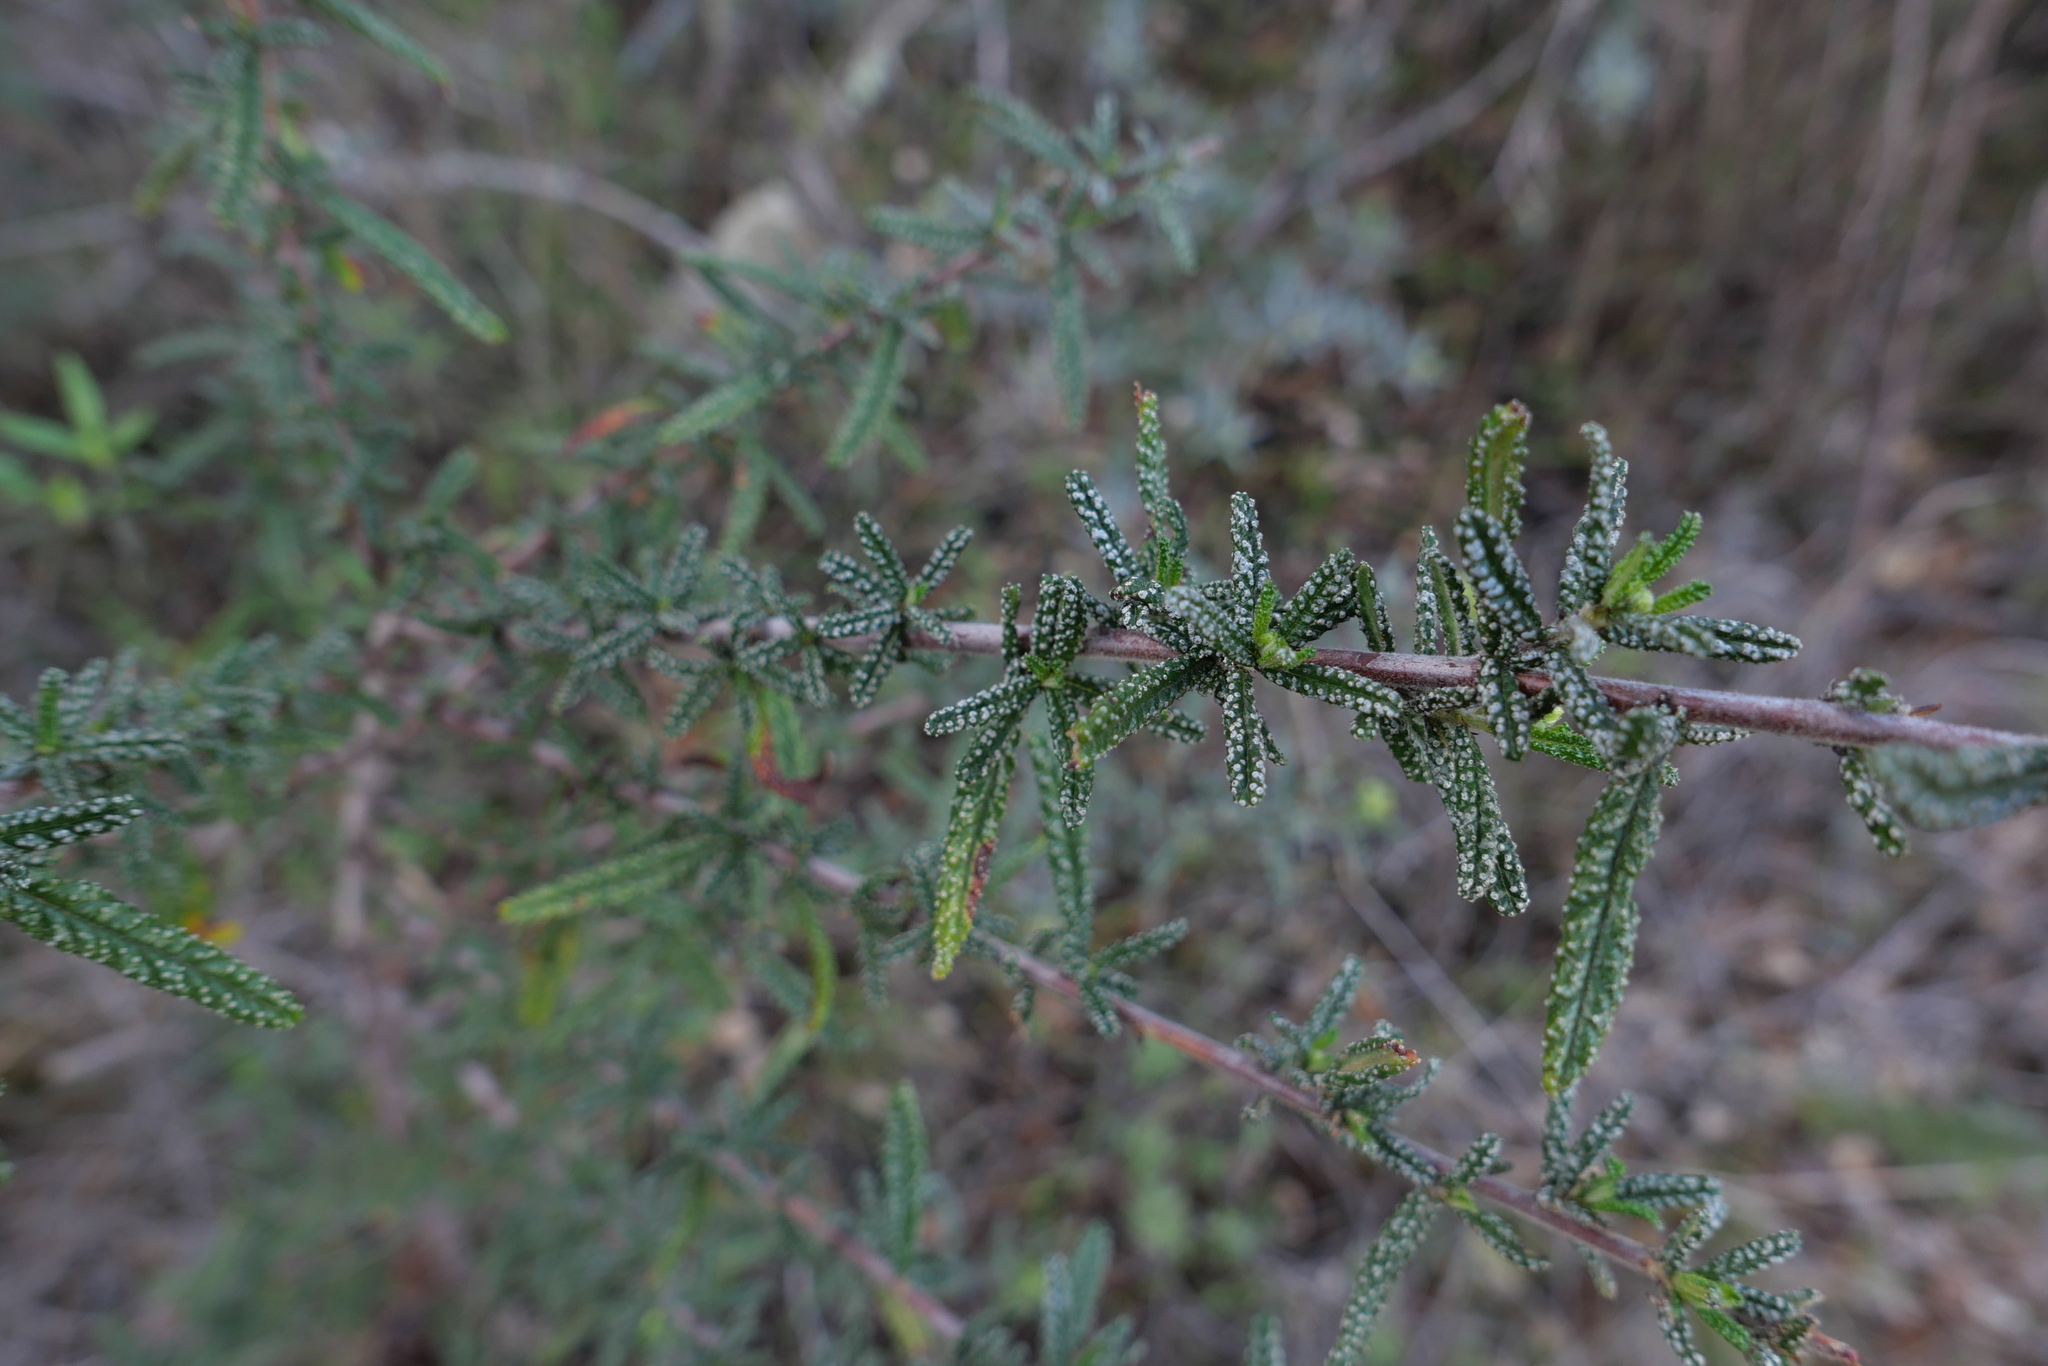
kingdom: Plantae
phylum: Tracheophyta
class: Magnoliopsida
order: Rosales
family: Rhamnaceae
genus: Ceanothus
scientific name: Ceanothus papillosus
